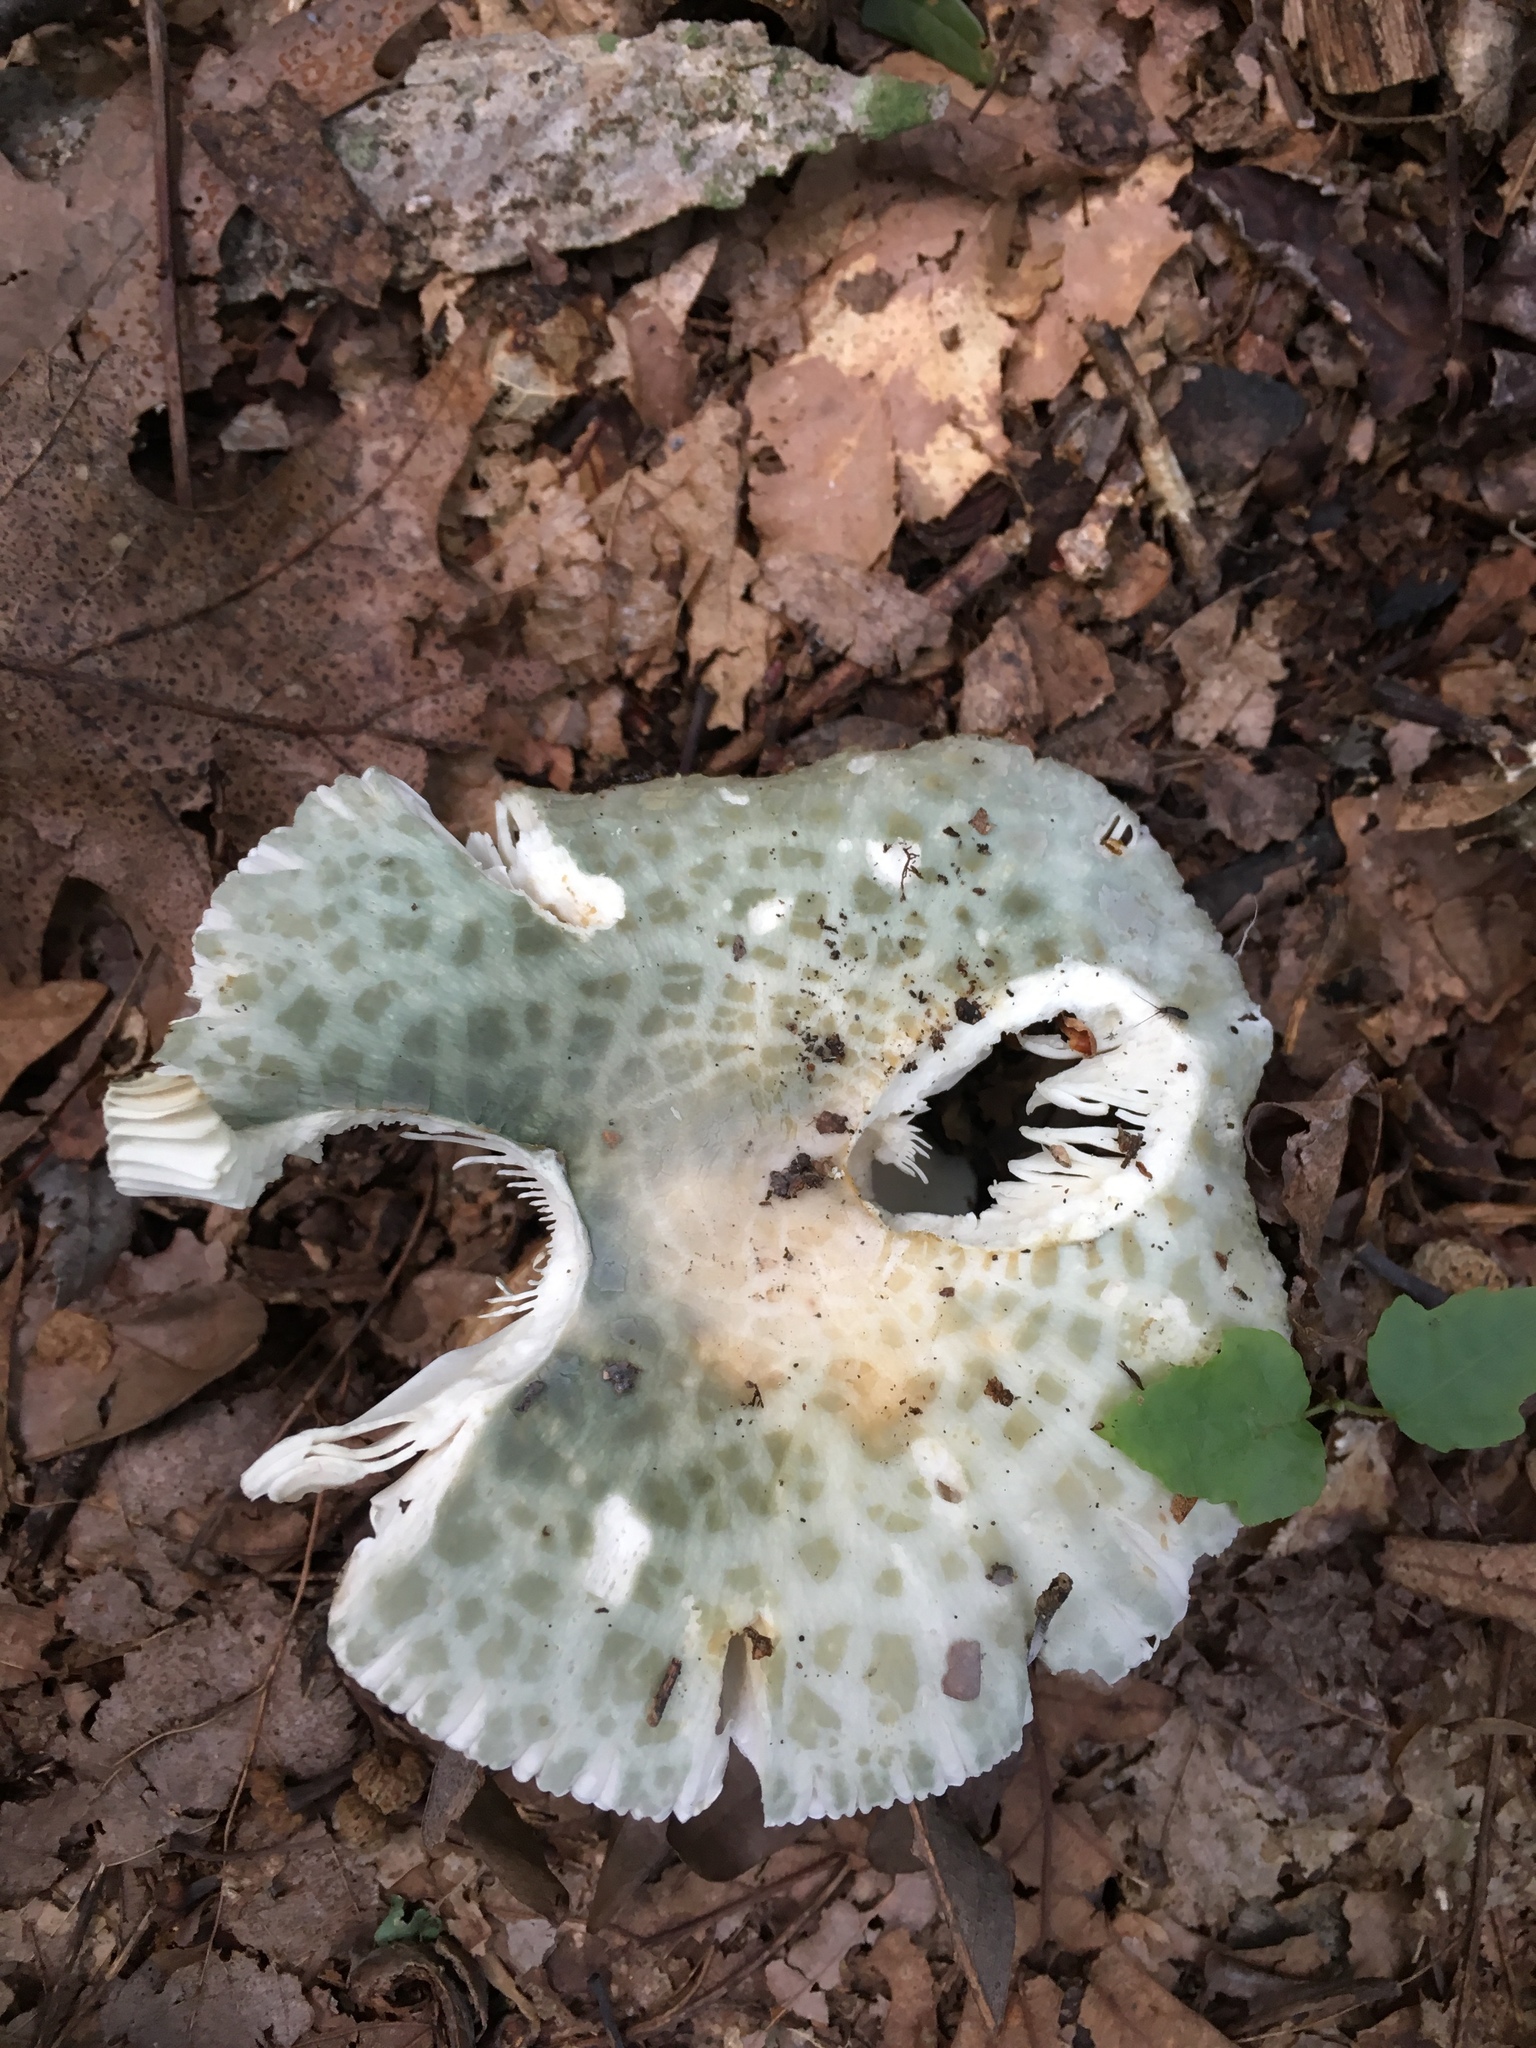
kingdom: Fungi
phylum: Basidiomycota
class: Agaricomycetes
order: Russulales
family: Russulaceae
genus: Russula
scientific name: Russula parvovirescens
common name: Blue-green cracking russula
